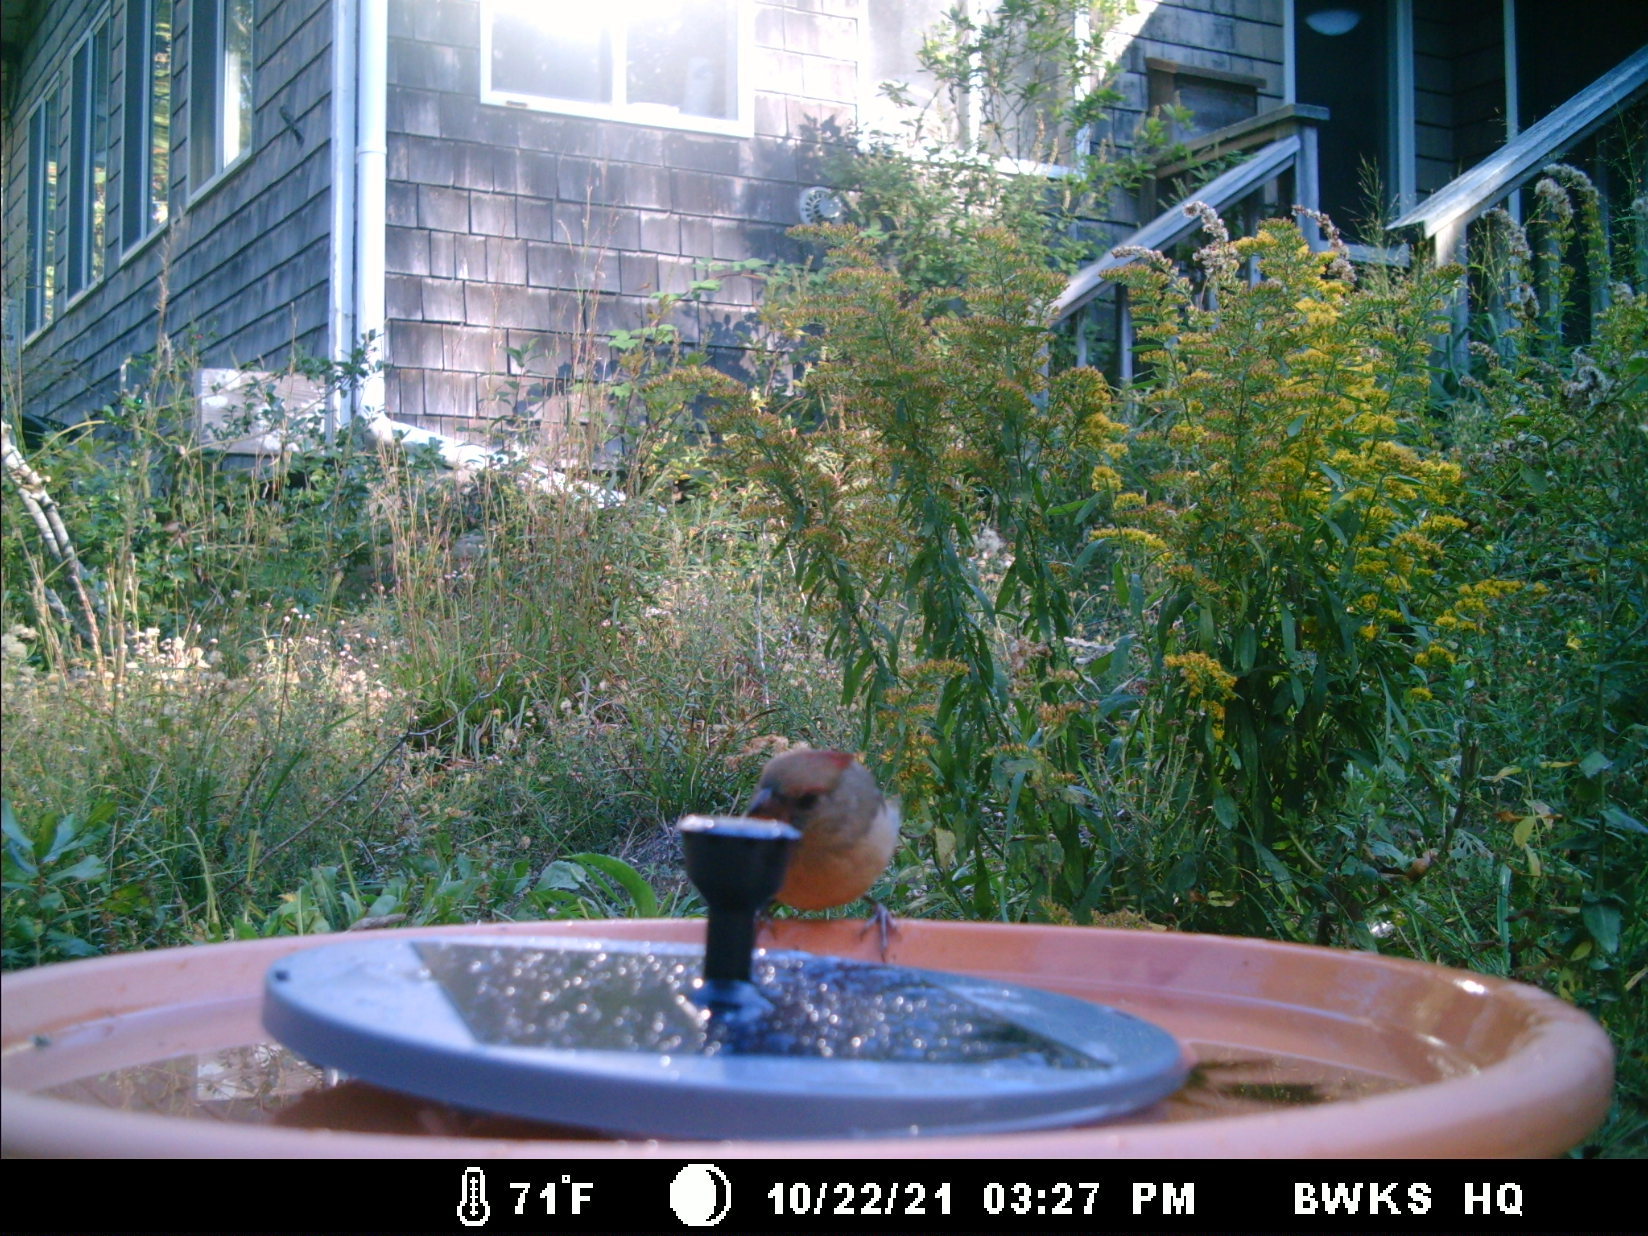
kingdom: Animalia
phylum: Chordata
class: Aves
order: Passeriformes
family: Cardinalidae
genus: Cardinalis
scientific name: Cardinalis cardinalis
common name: Northern cardinal
